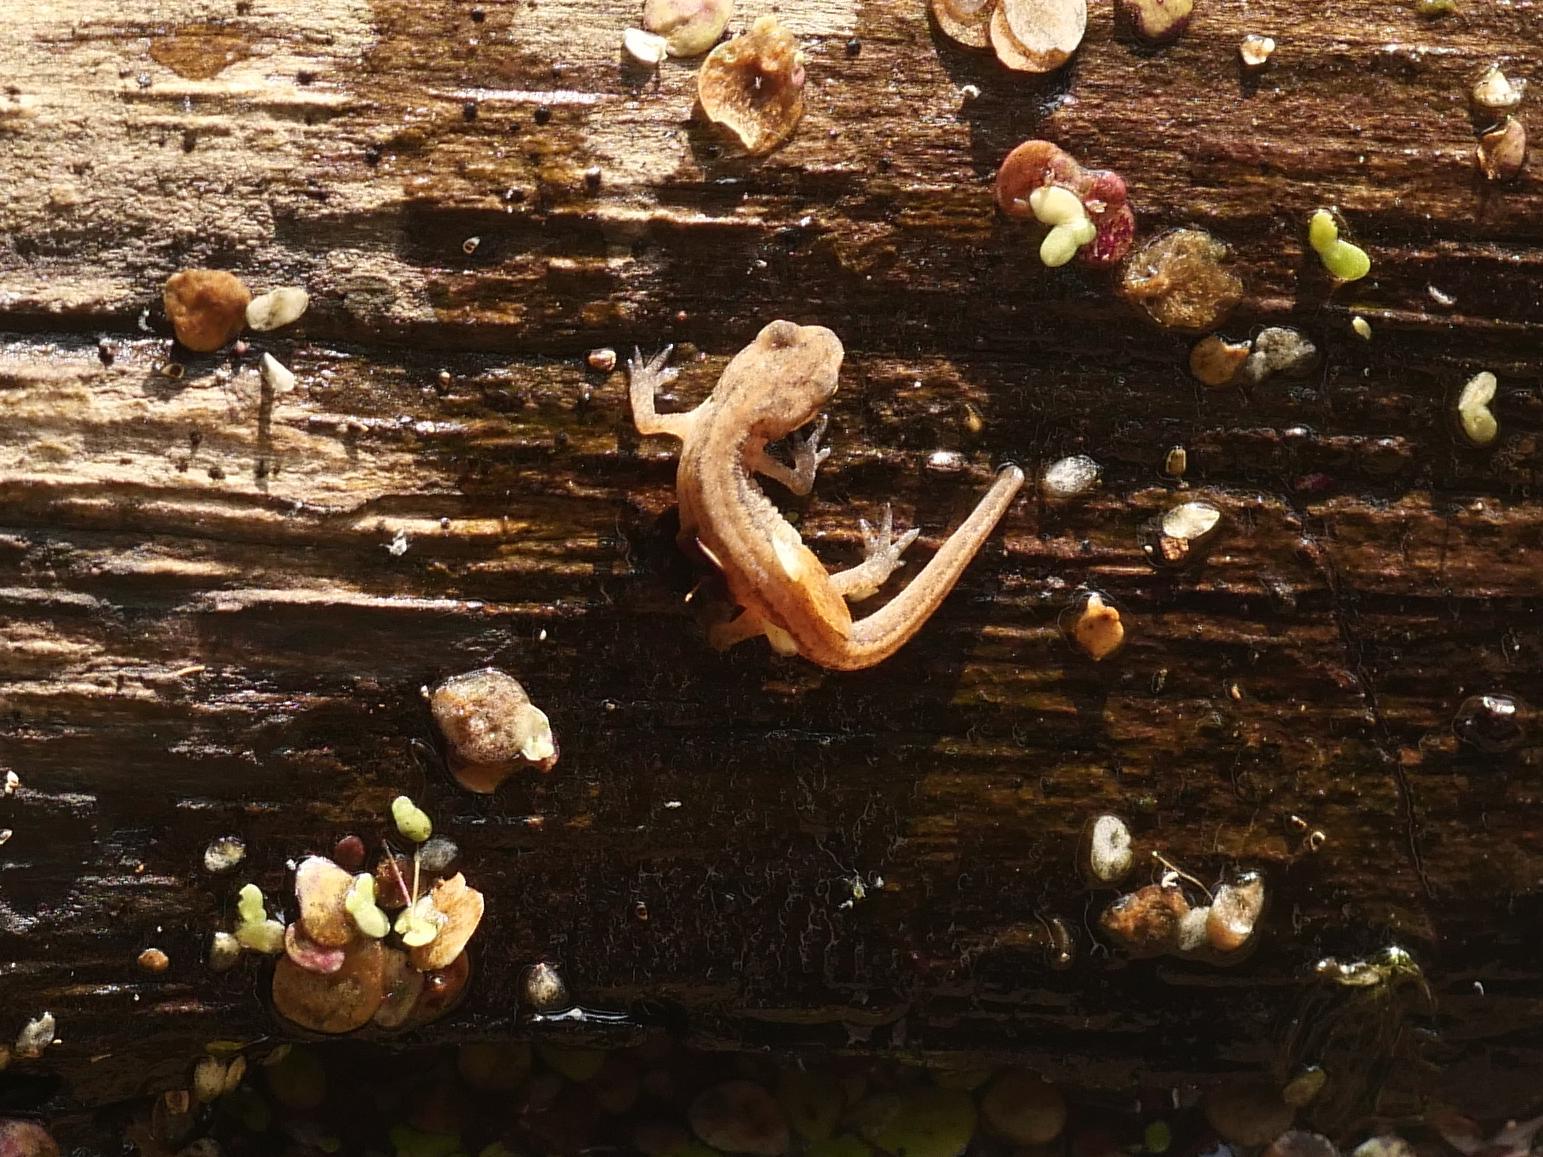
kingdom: Animalia
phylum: Chordata
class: Amphibia
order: Caudata
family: Salamandridae
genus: Lissotriton
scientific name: Lissotriton vulgaris
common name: Smooth newt
